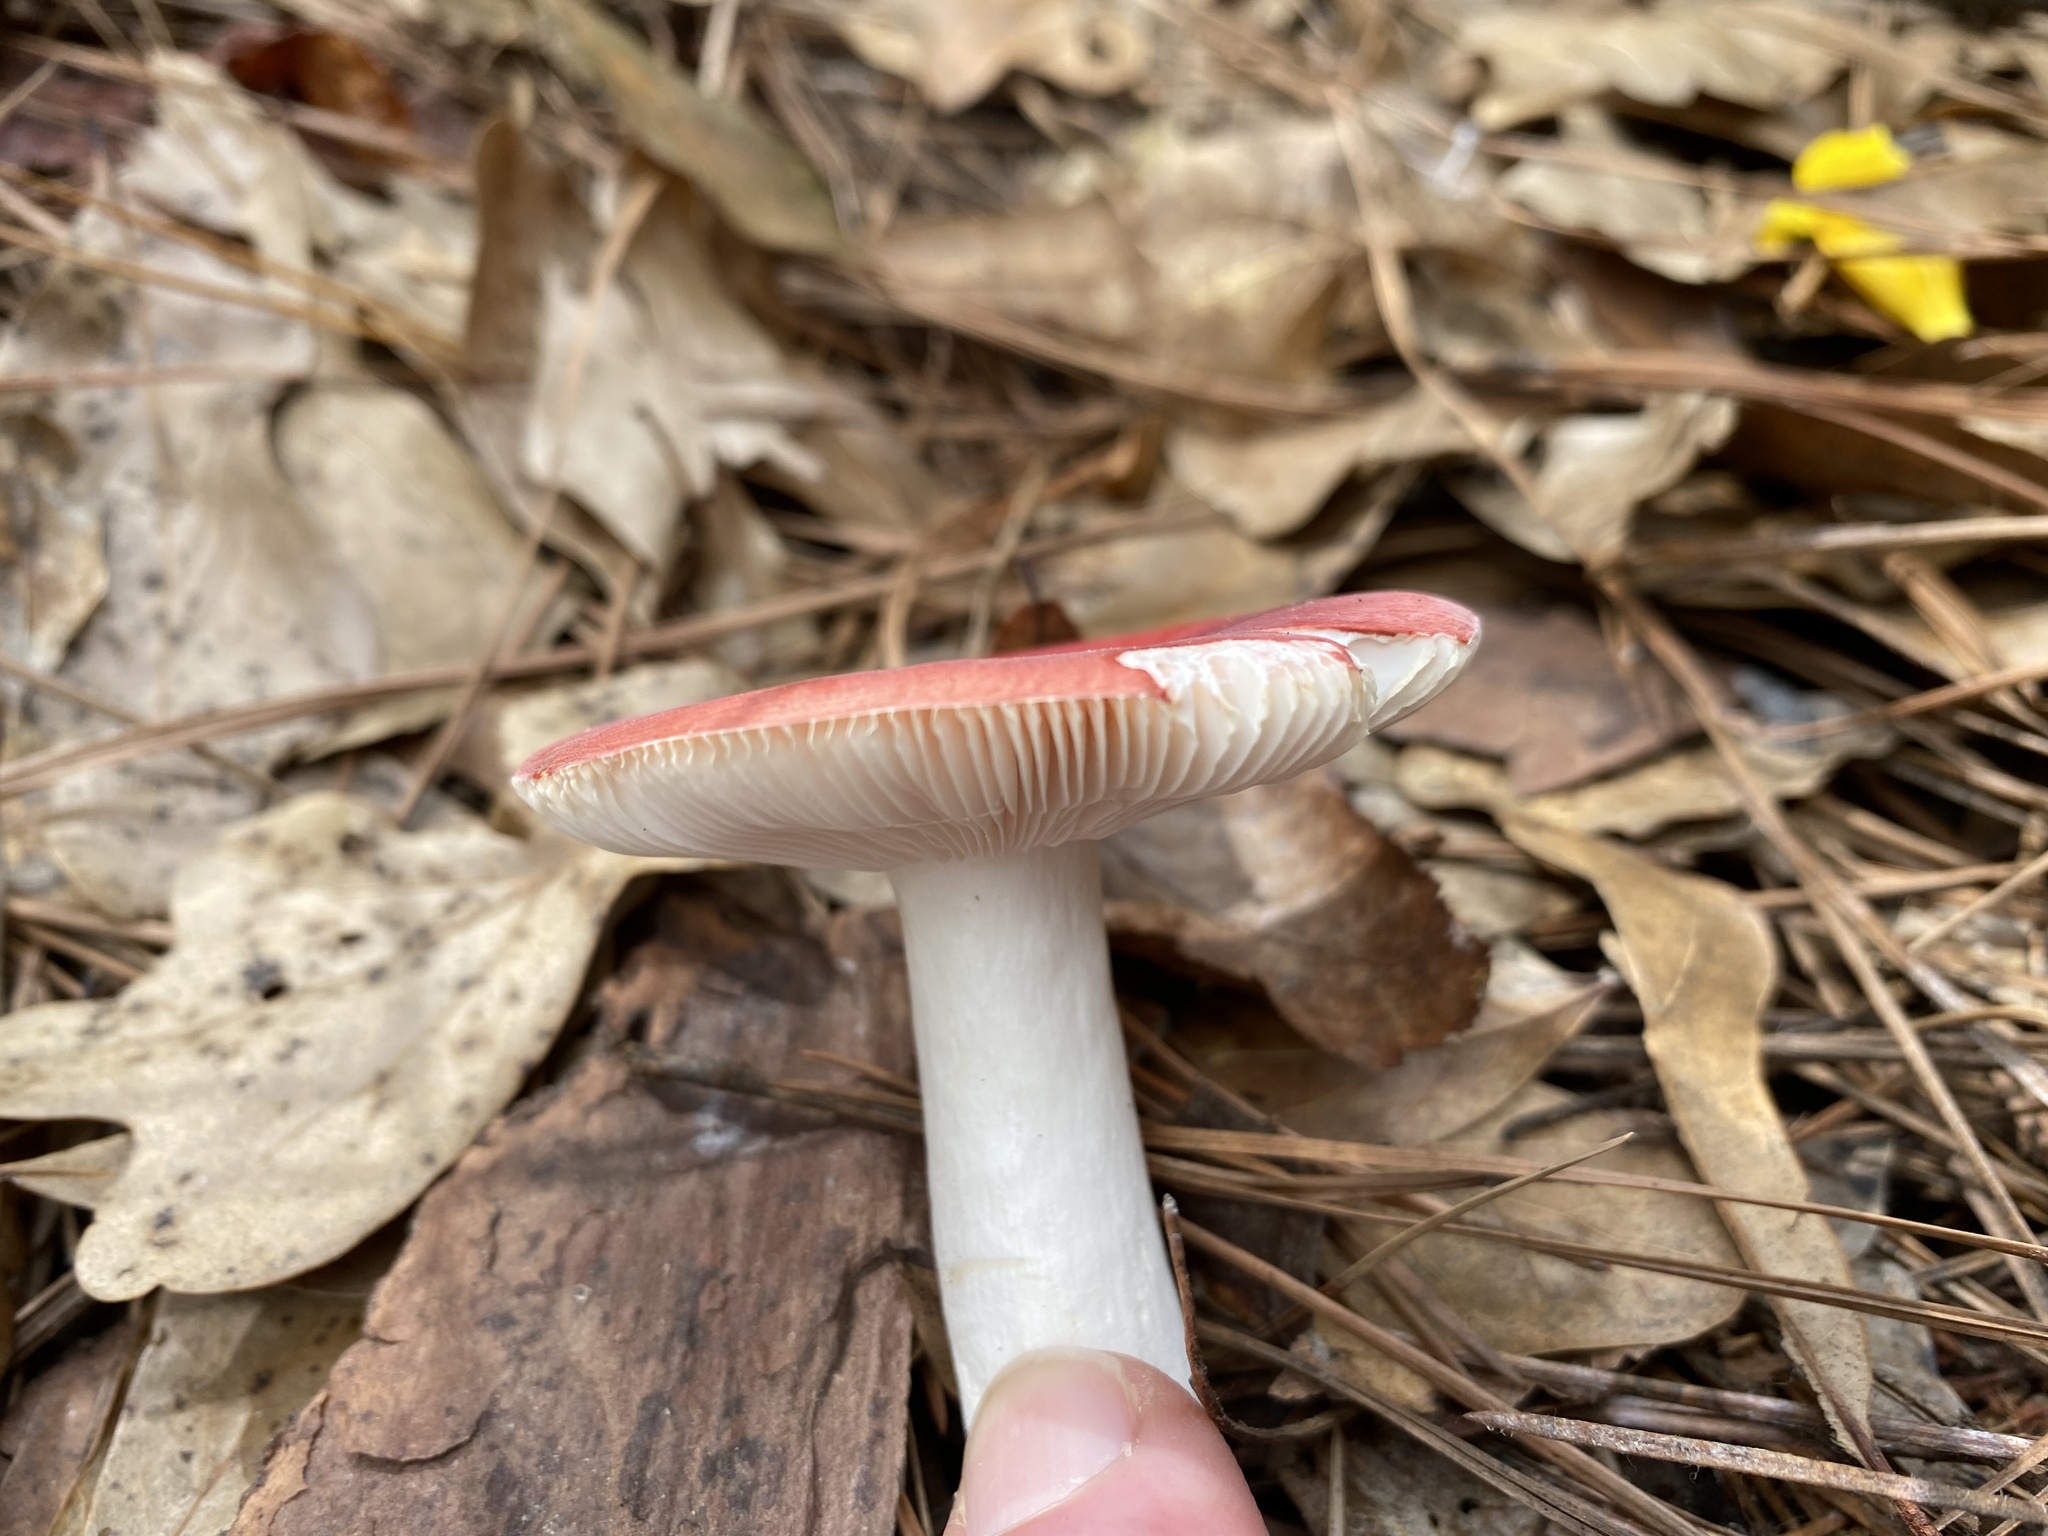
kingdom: Fungi
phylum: Basidiomycota
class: Agaricomycetes
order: Russulales
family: Russulaceae
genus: Russula
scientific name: Russula
